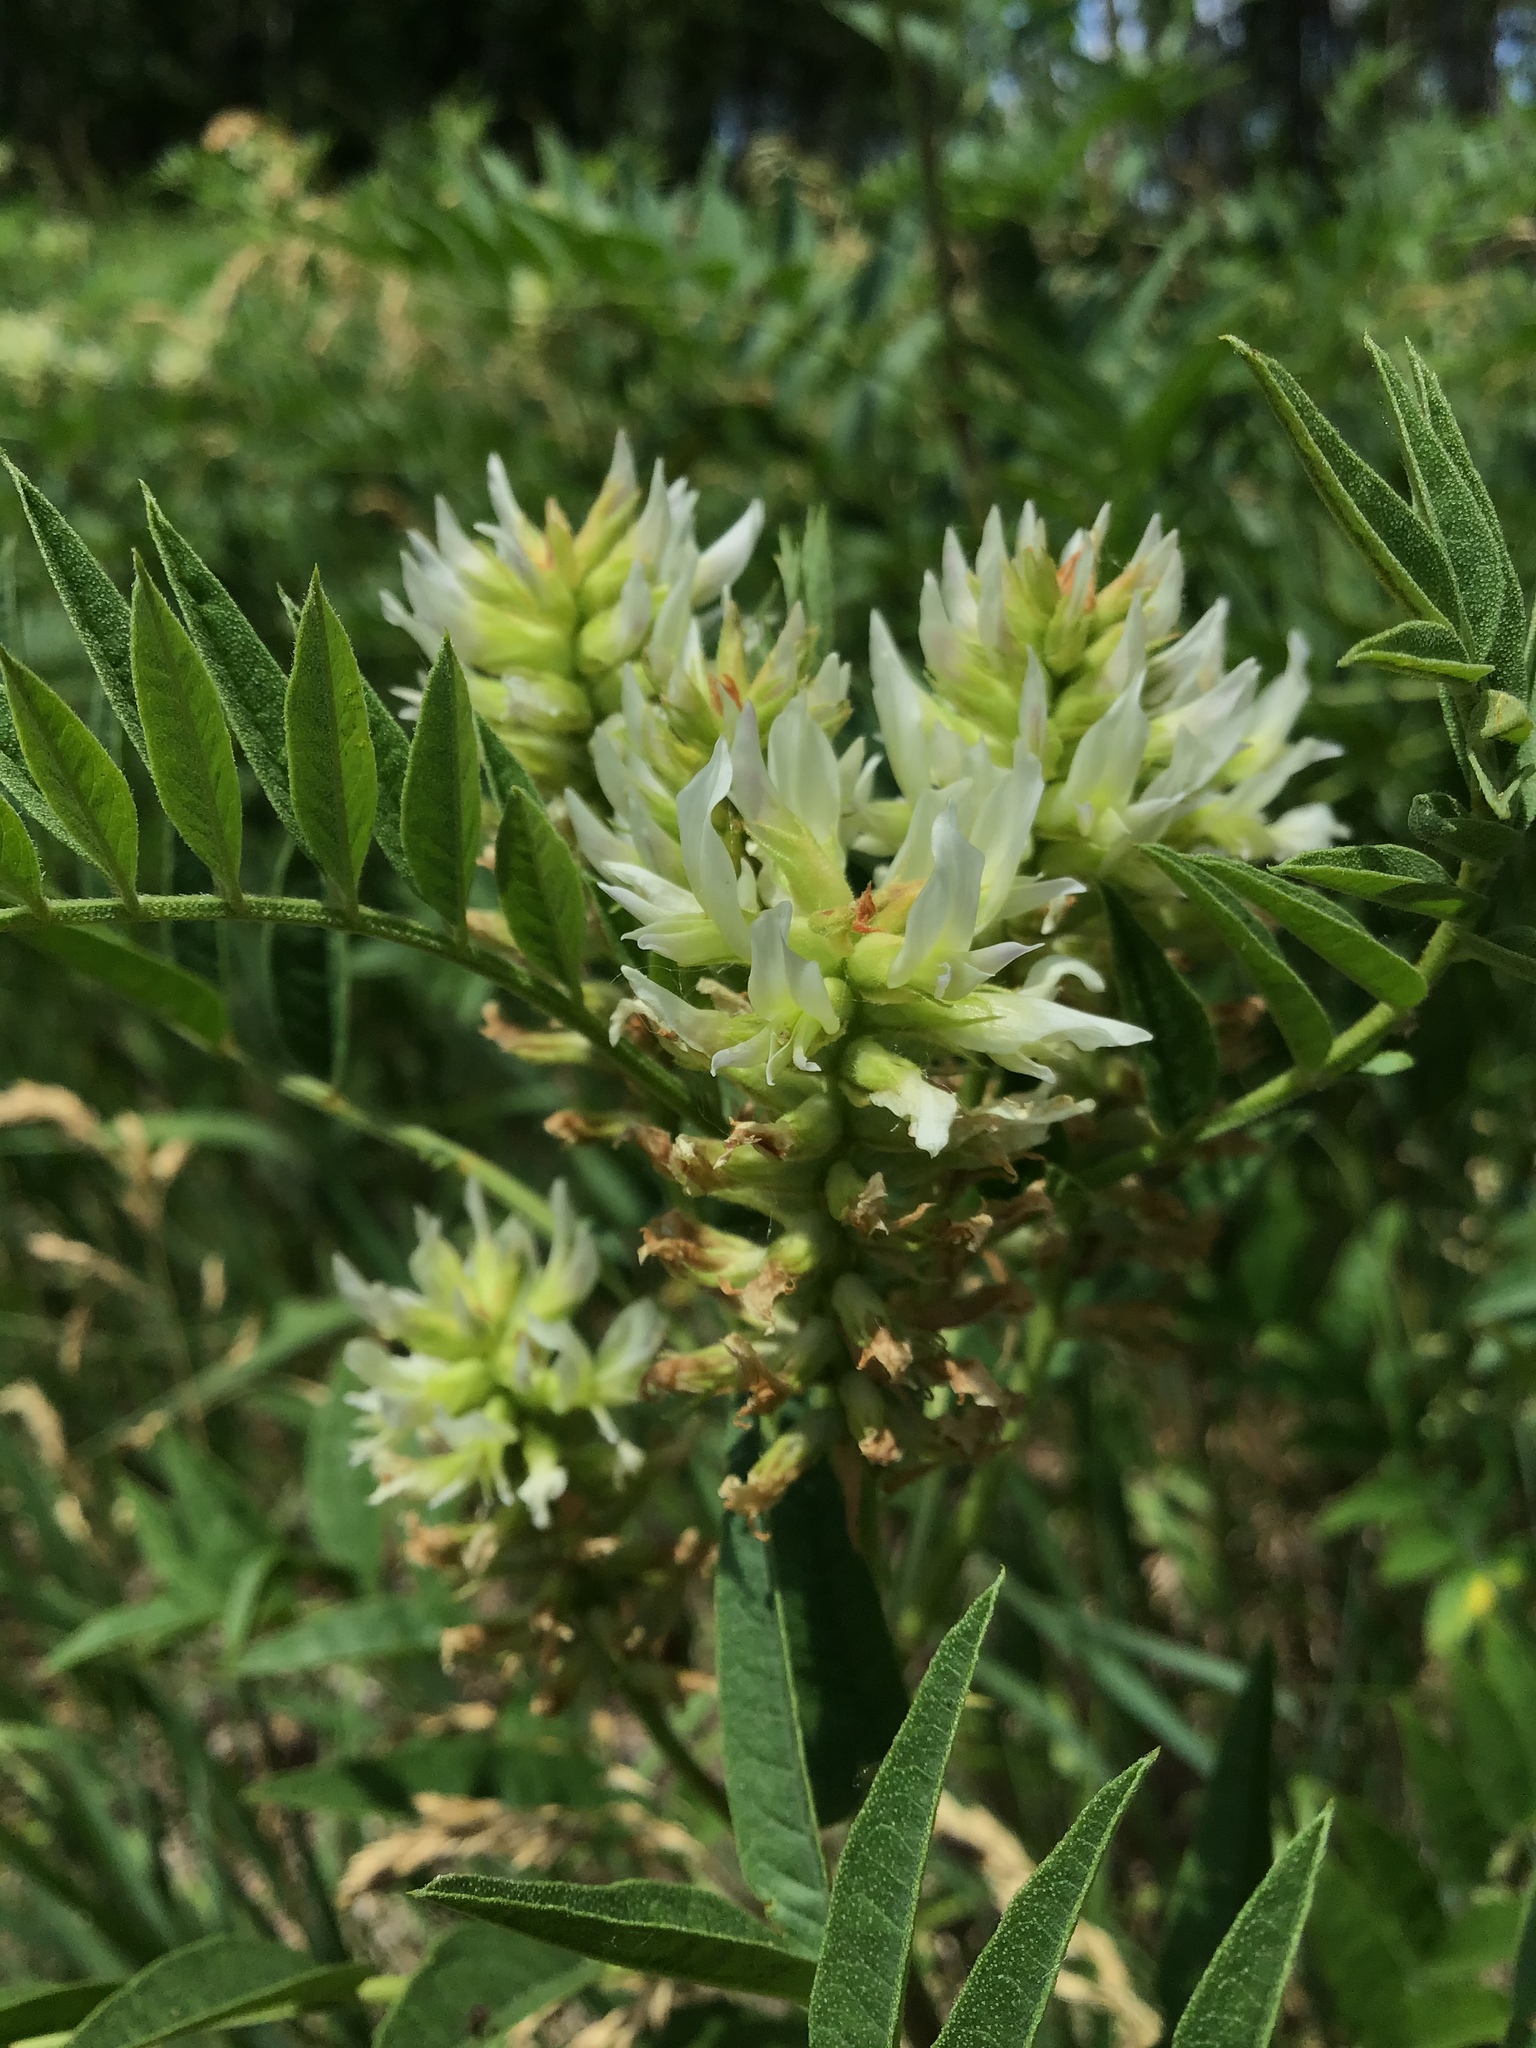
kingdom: Plantae
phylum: Tracheophyta
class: Magnoliopsida
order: Fabales
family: Fabaceae
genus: Glycyrrhiza
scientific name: Glycyrrhiza lepidota
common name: American liquorice
